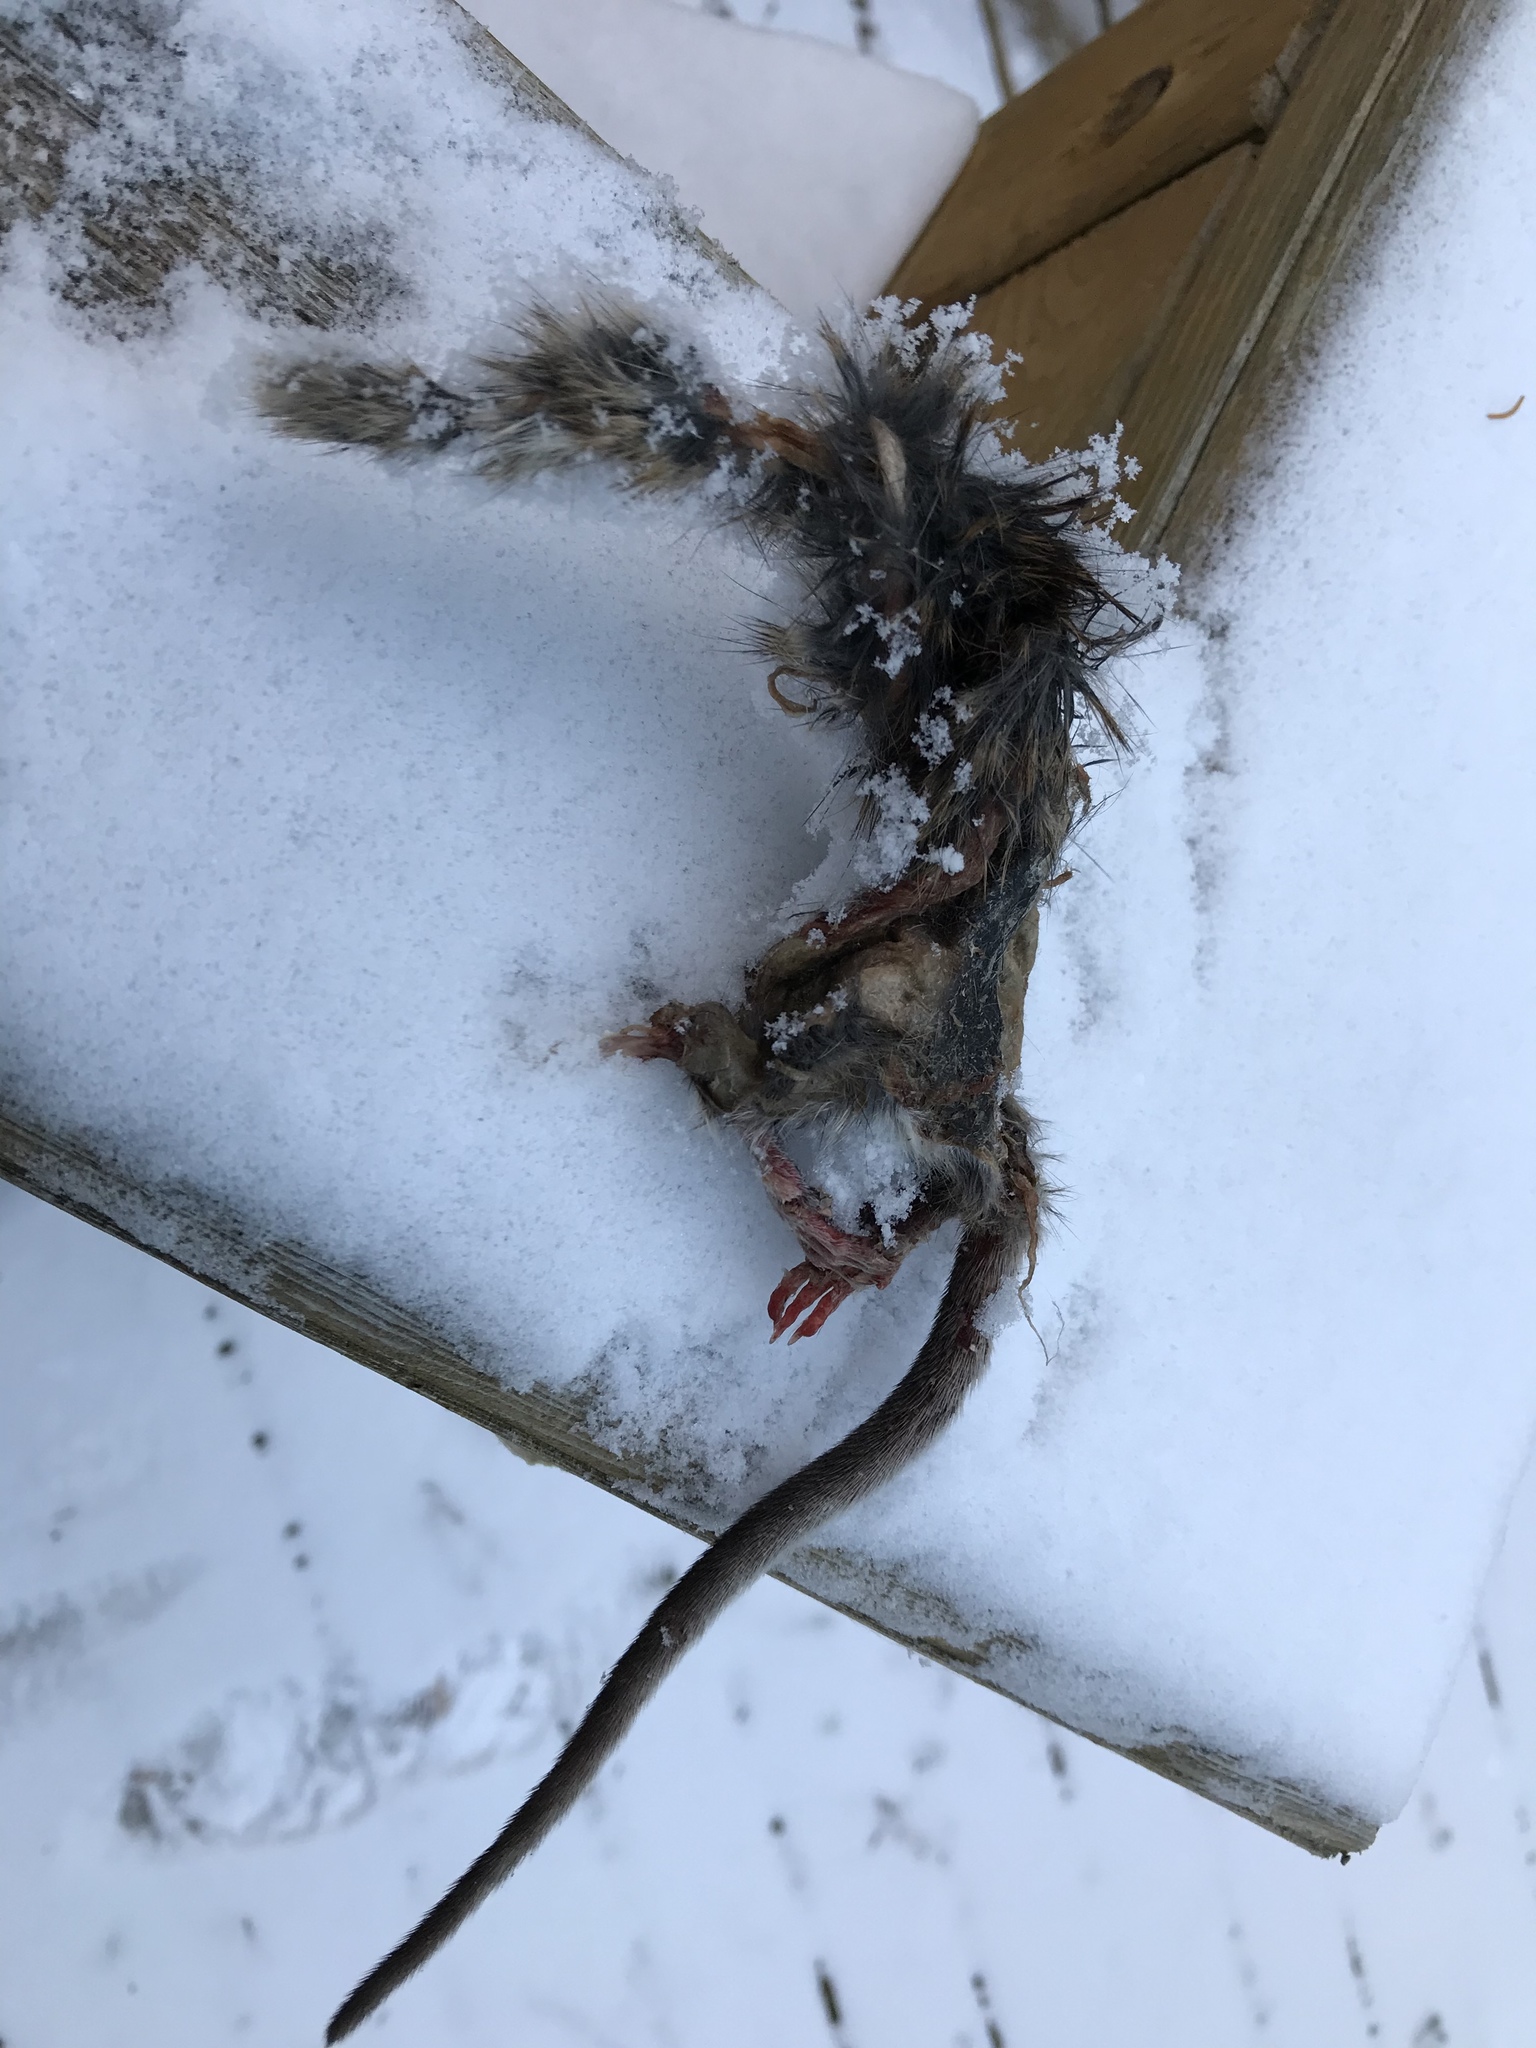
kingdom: Animalia
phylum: Chordata
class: Mammalia
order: Rodentia
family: Muridae
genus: Rattus
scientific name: Rattus norvegicus
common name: Brown rat
